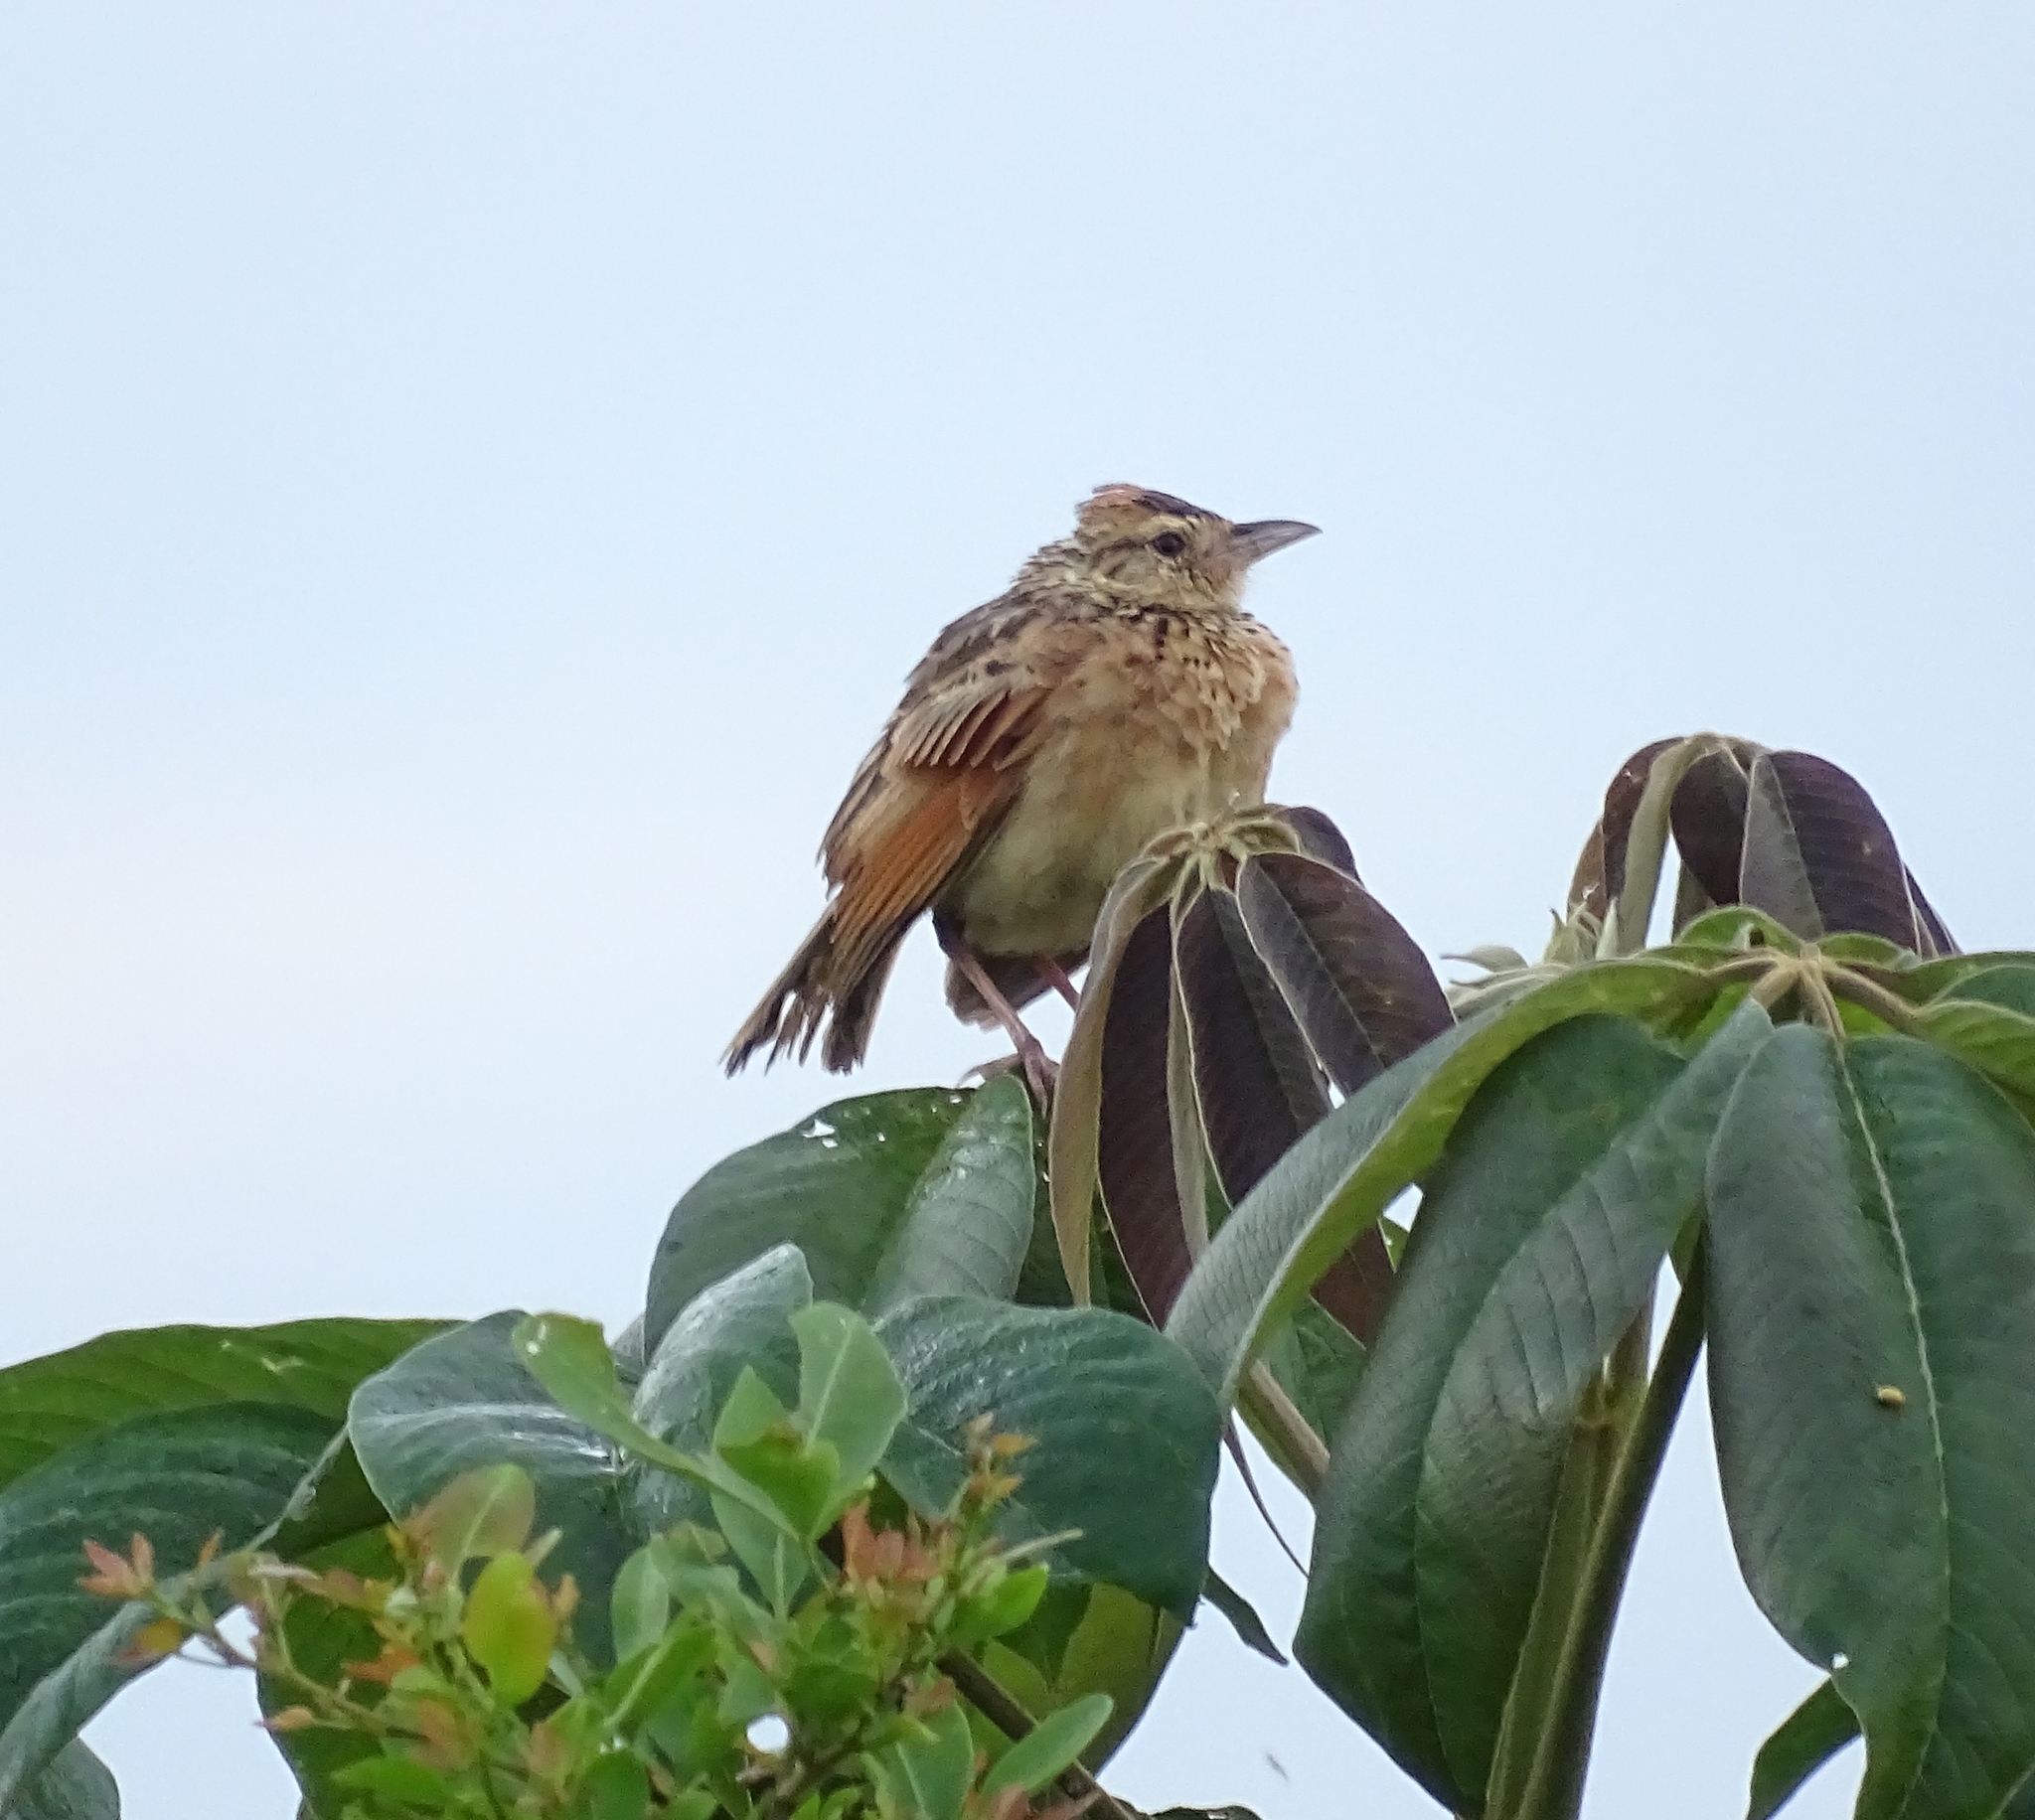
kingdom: Animalia
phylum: Chordata
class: Aves
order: Passeriformes
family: Alaudidae
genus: Mirafra
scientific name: Mirafra africana
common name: Rufous-naped lark
